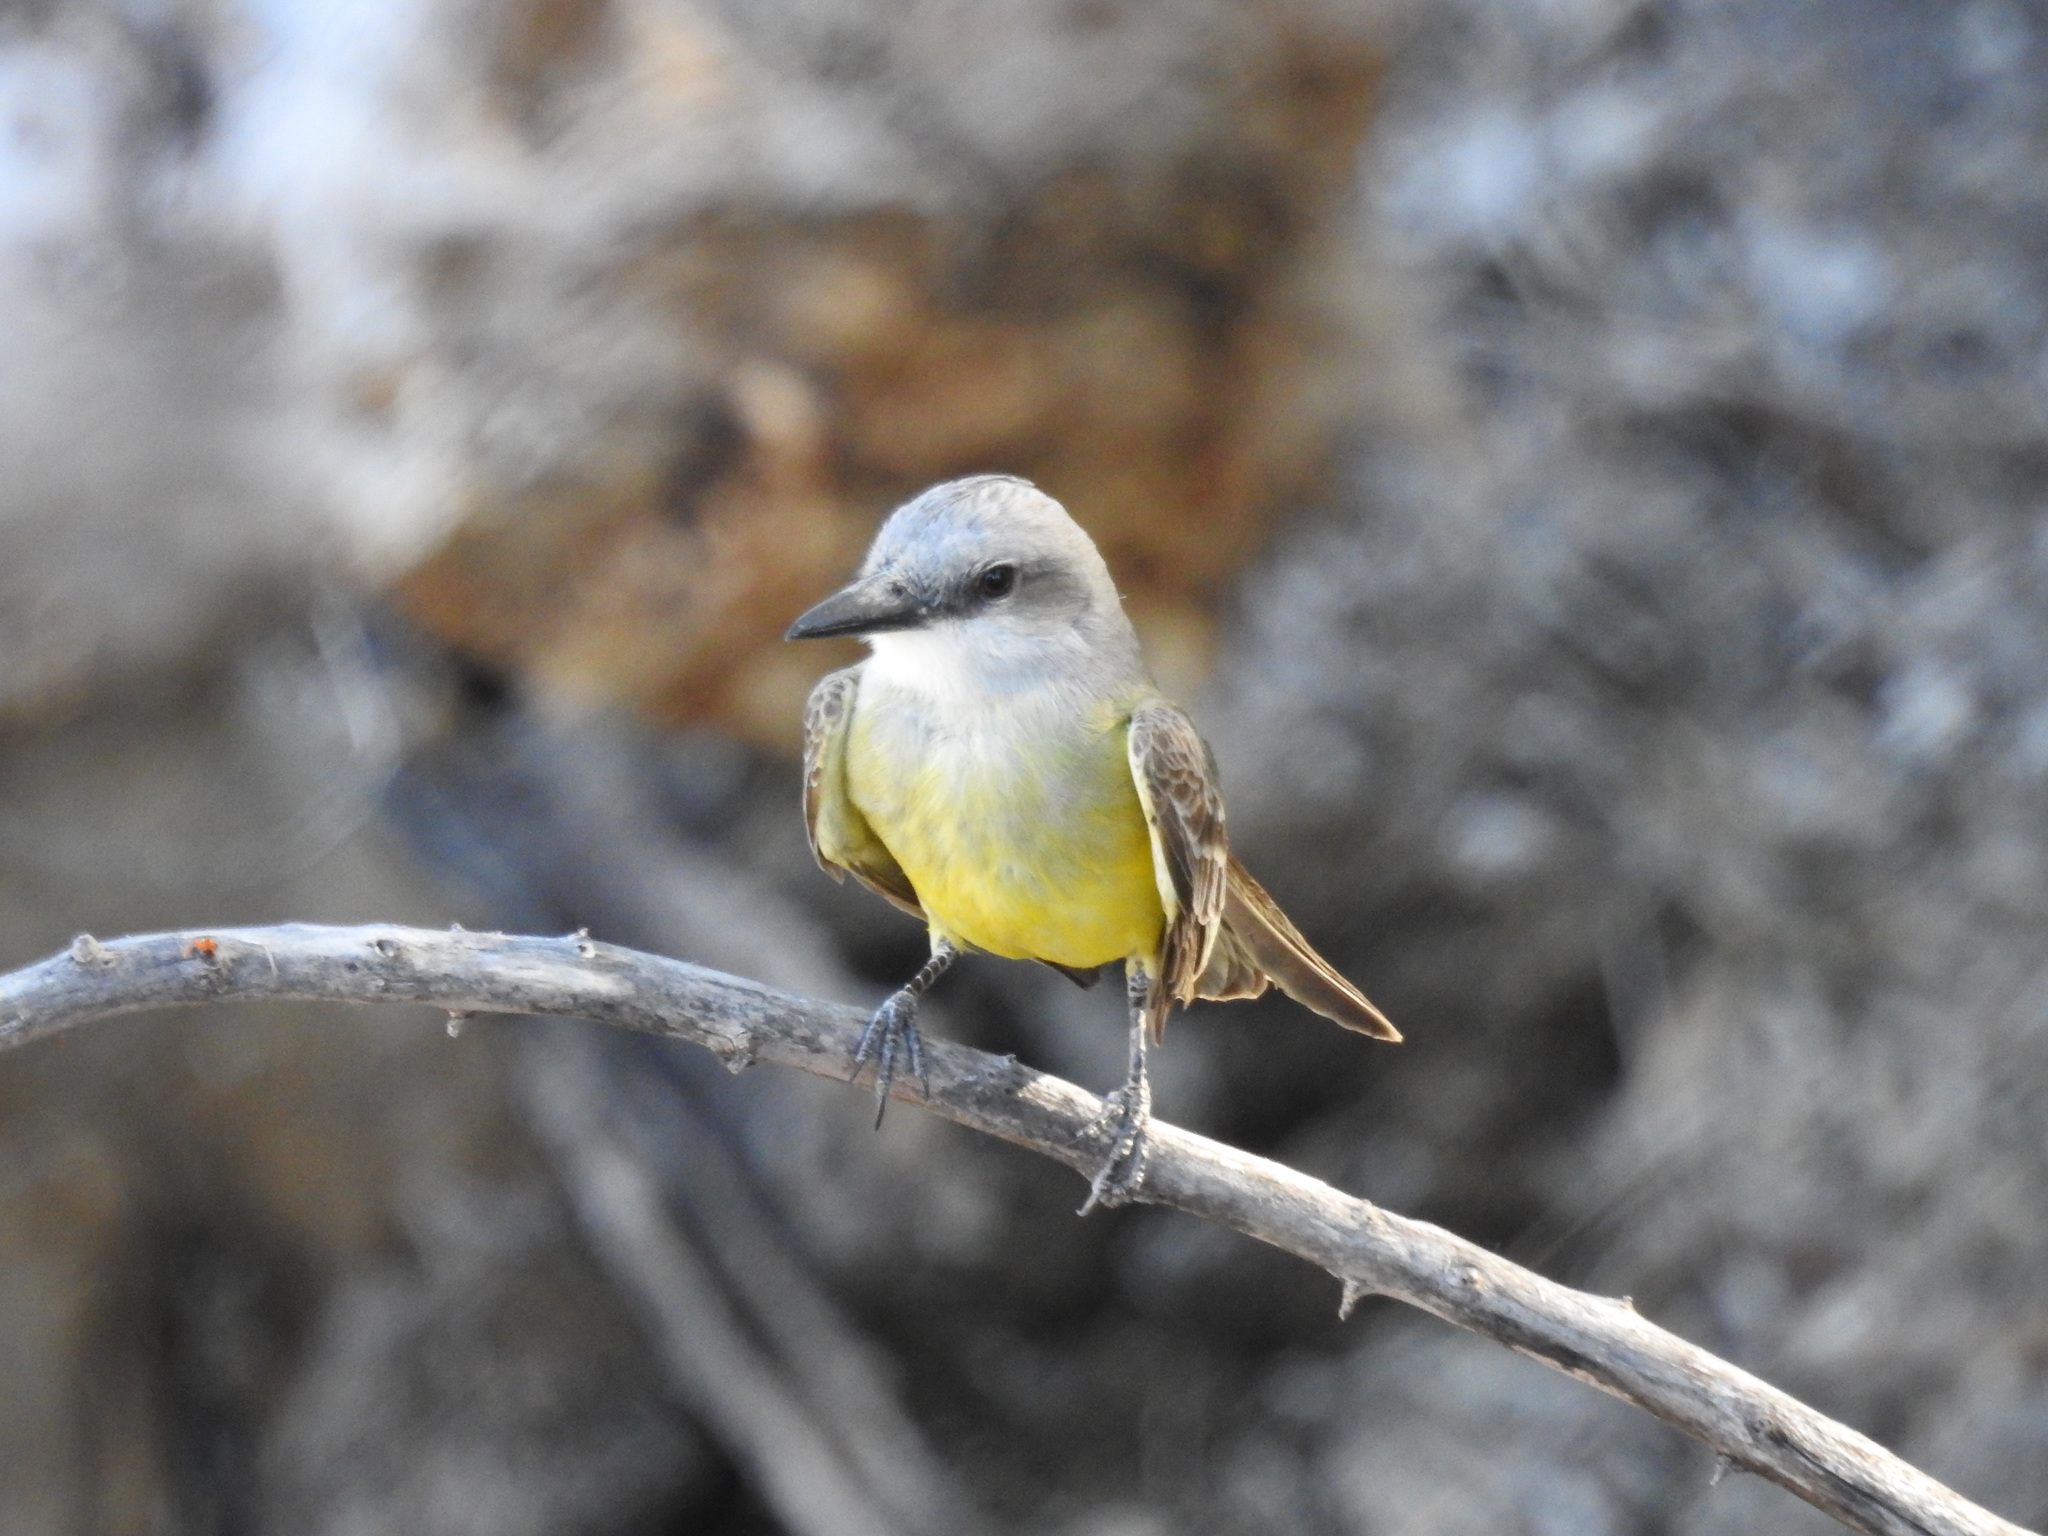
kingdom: Animalia
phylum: Chordata
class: Aves
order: Passeriformes
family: Tyrannidae
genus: Tyrannus
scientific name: Tyrannus melancholicus
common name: Tropical kingbird
